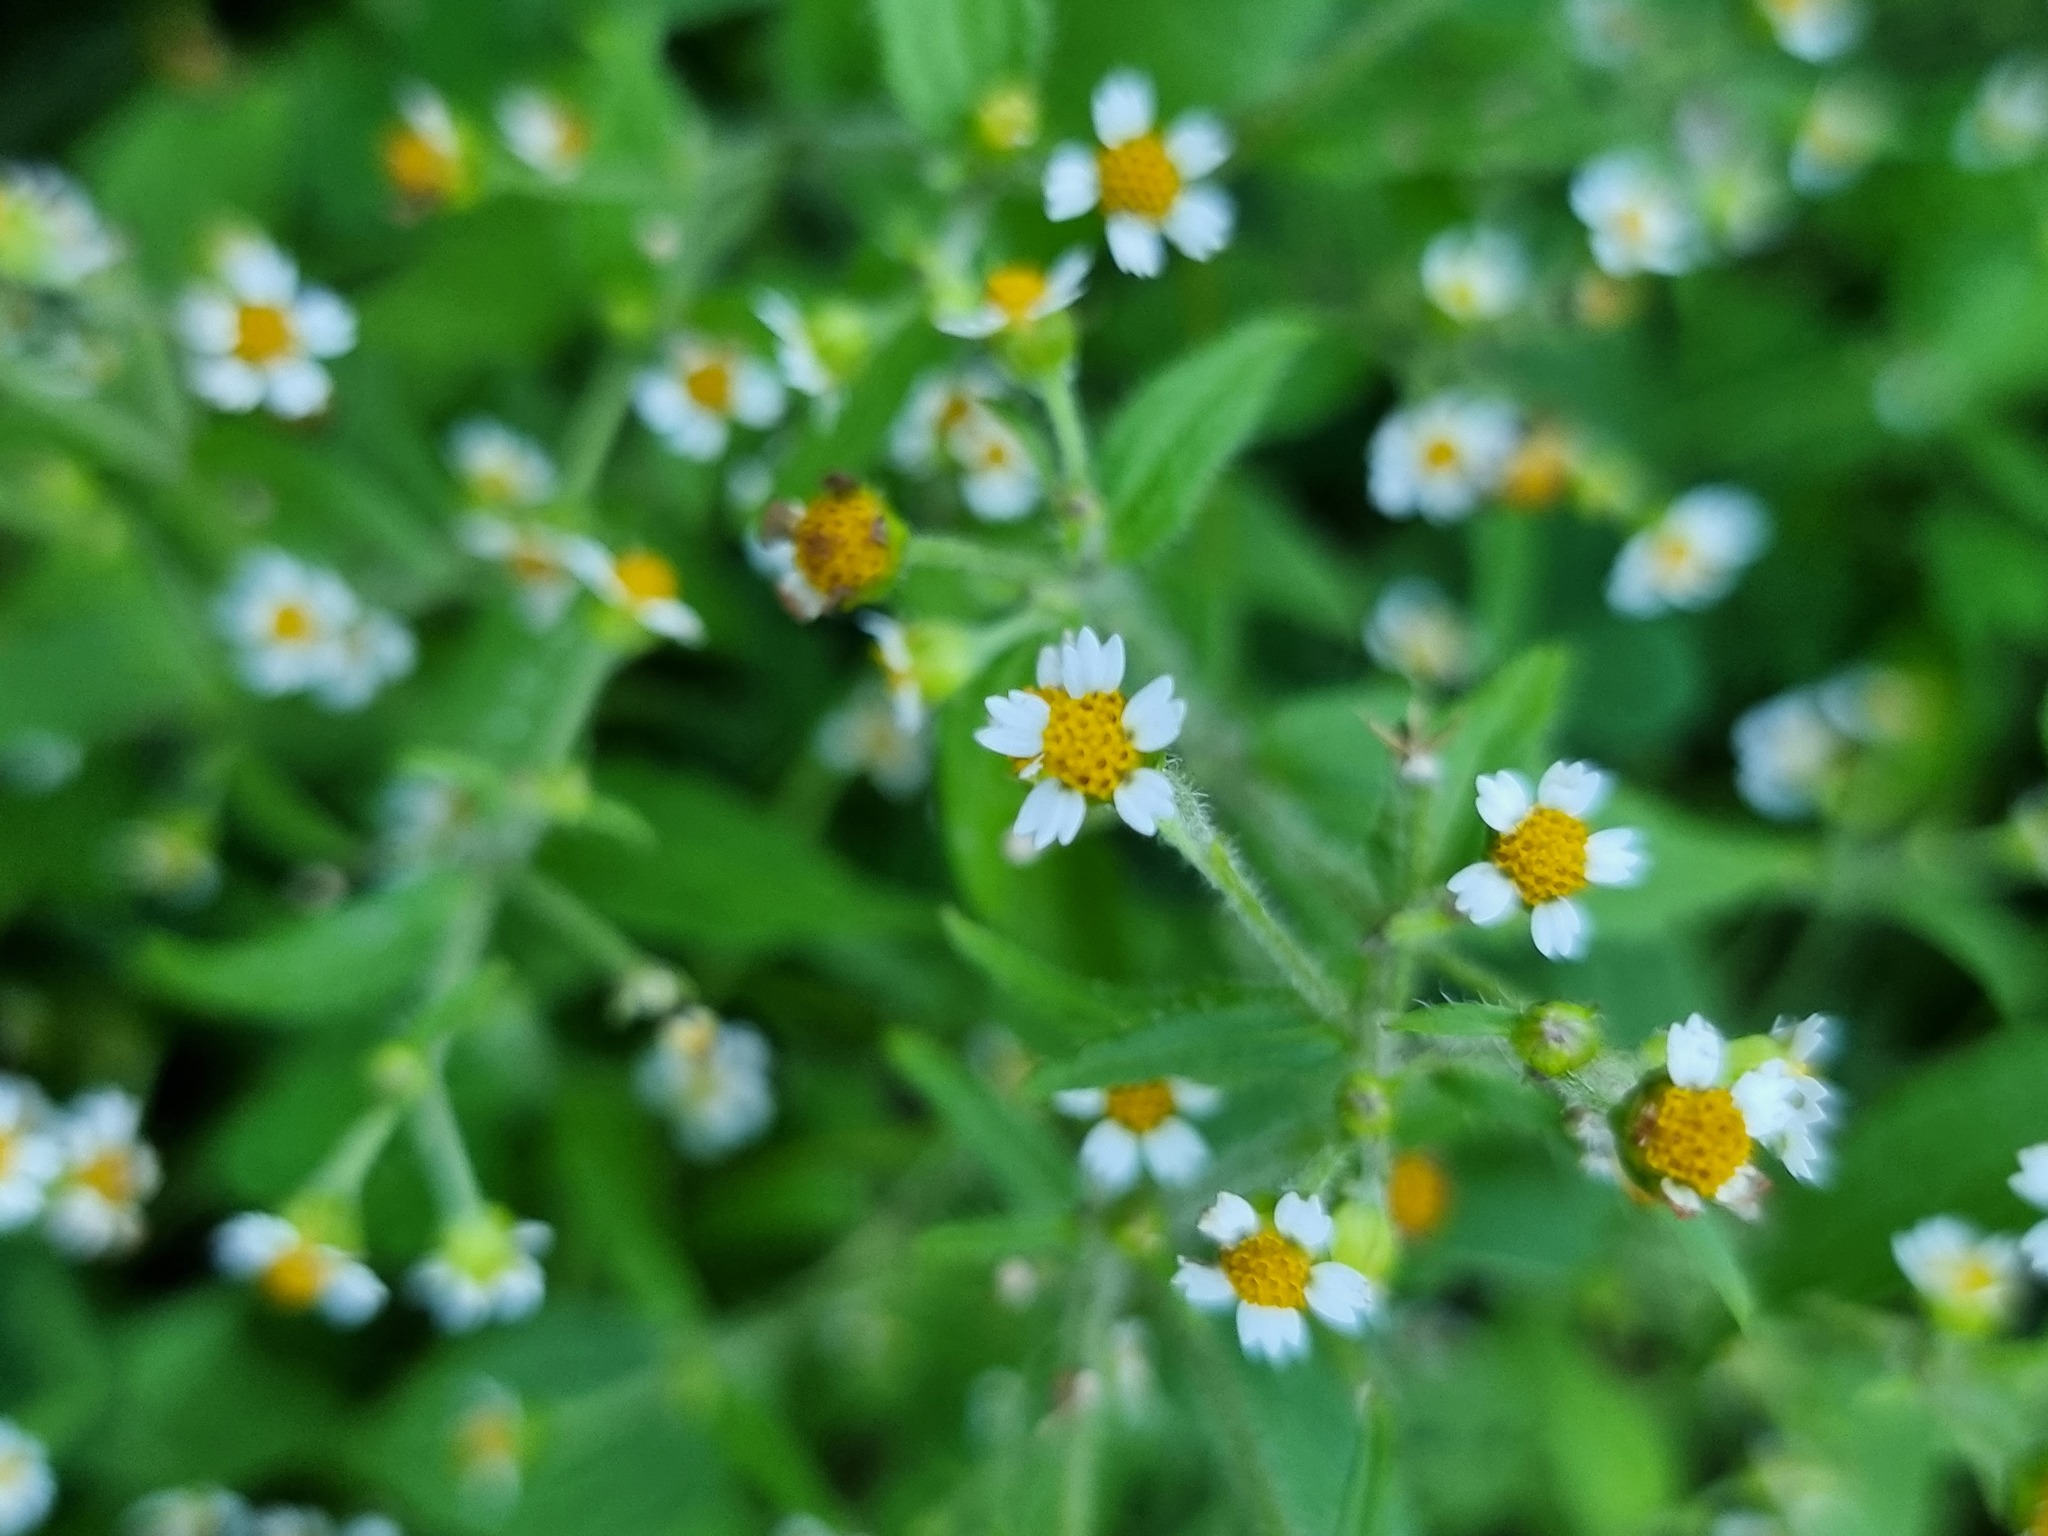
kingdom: Plantae
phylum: Tracheophyta
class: Magnoliopsida
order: Asterales
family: Asteraceae
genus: Galinsoga
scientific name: Galinsoga quadriradiata
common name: Shaggy soldier
